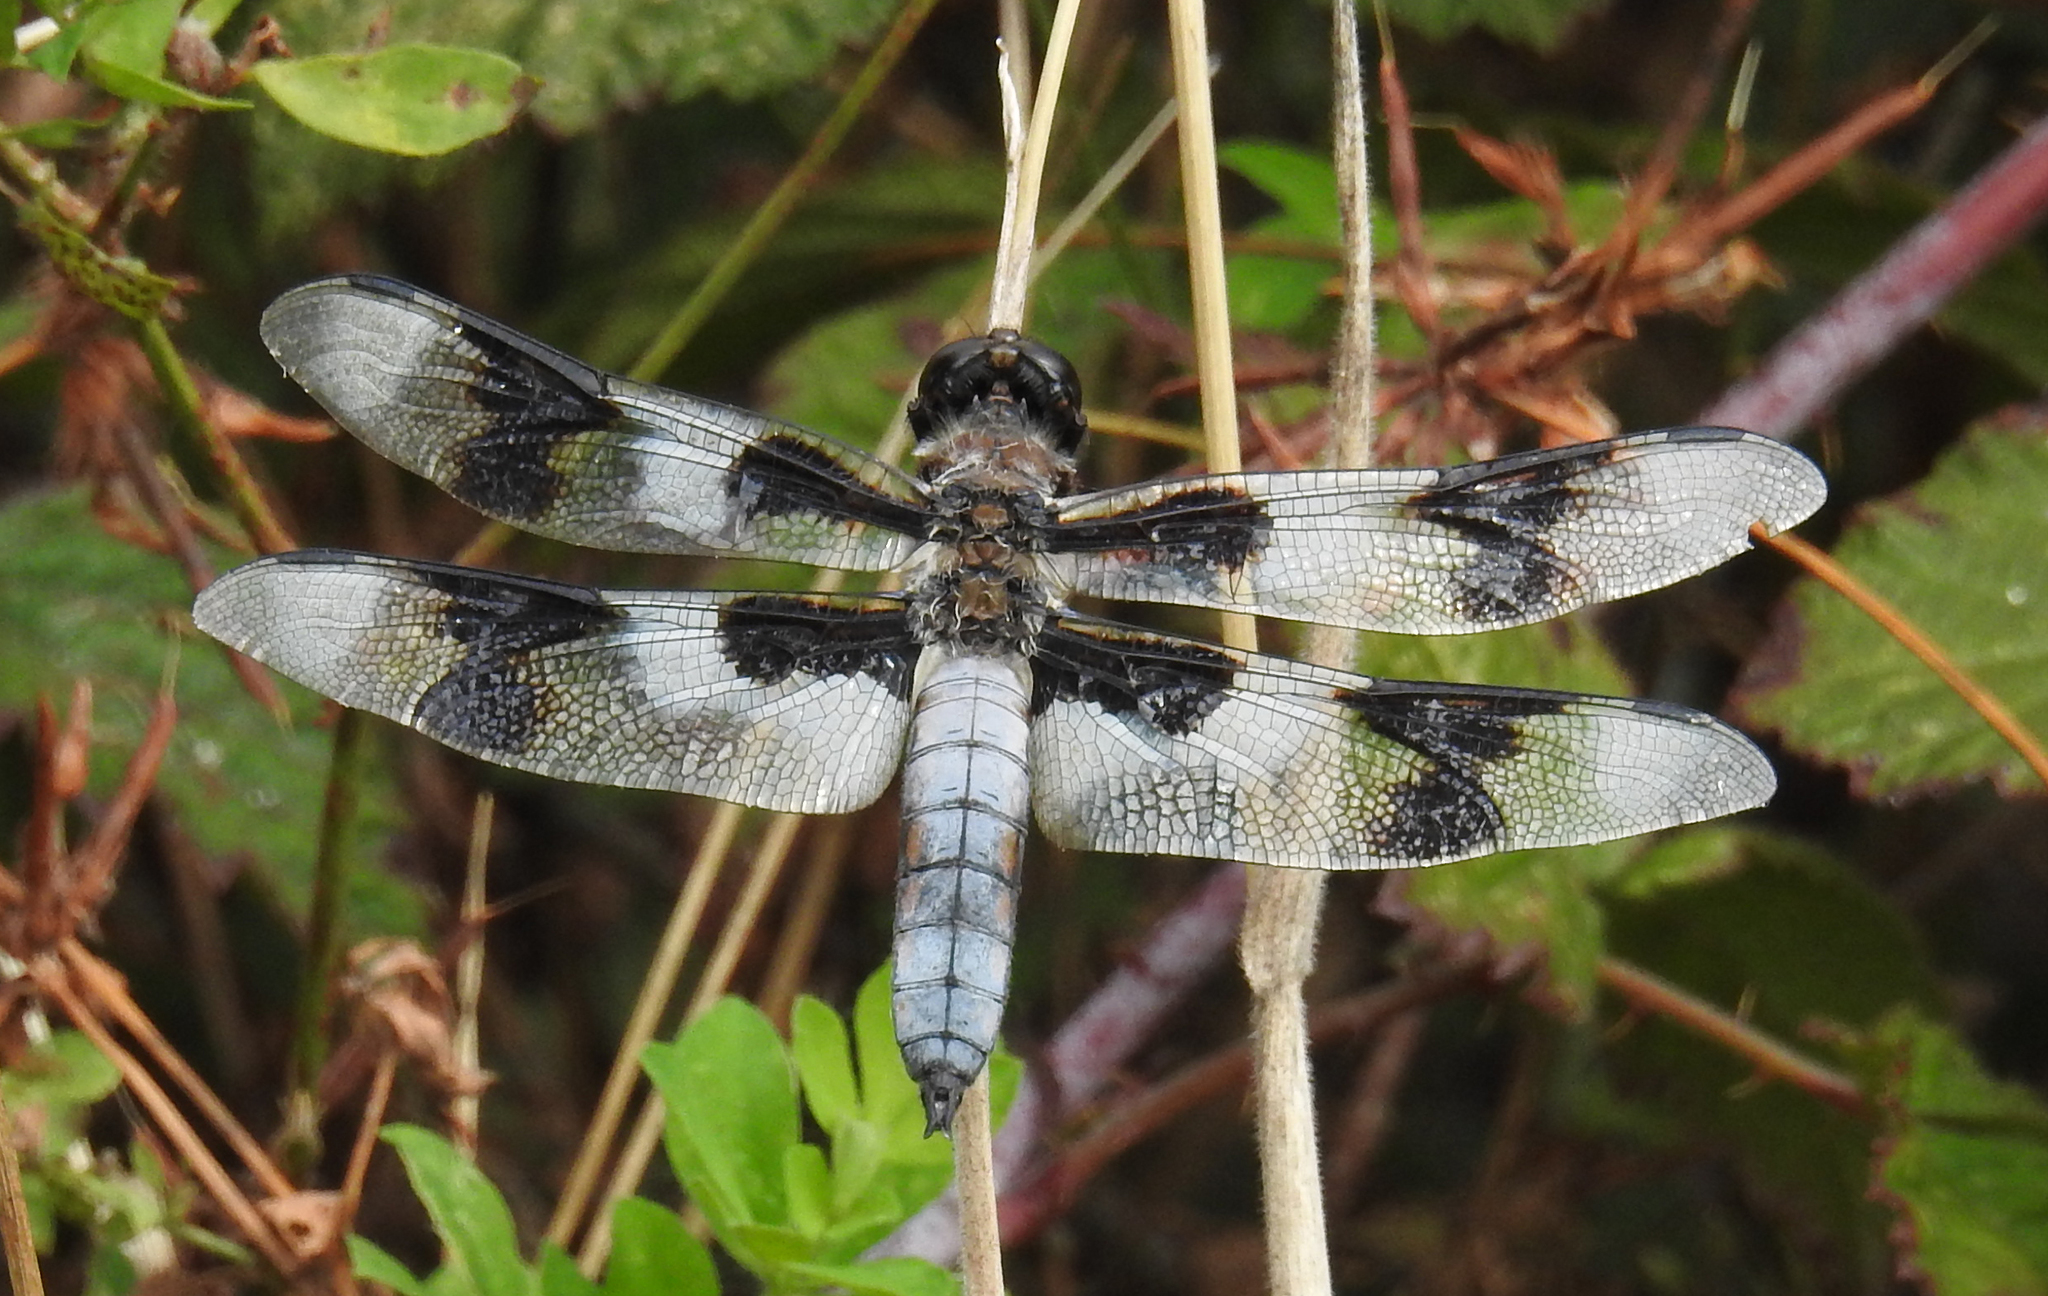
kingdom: Animalia
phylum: Arthropoda
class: Insecta
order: Odonata
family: Libellulidae
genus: Libellula
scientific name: Libellula forensis
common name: Eight-spotted skimmer
